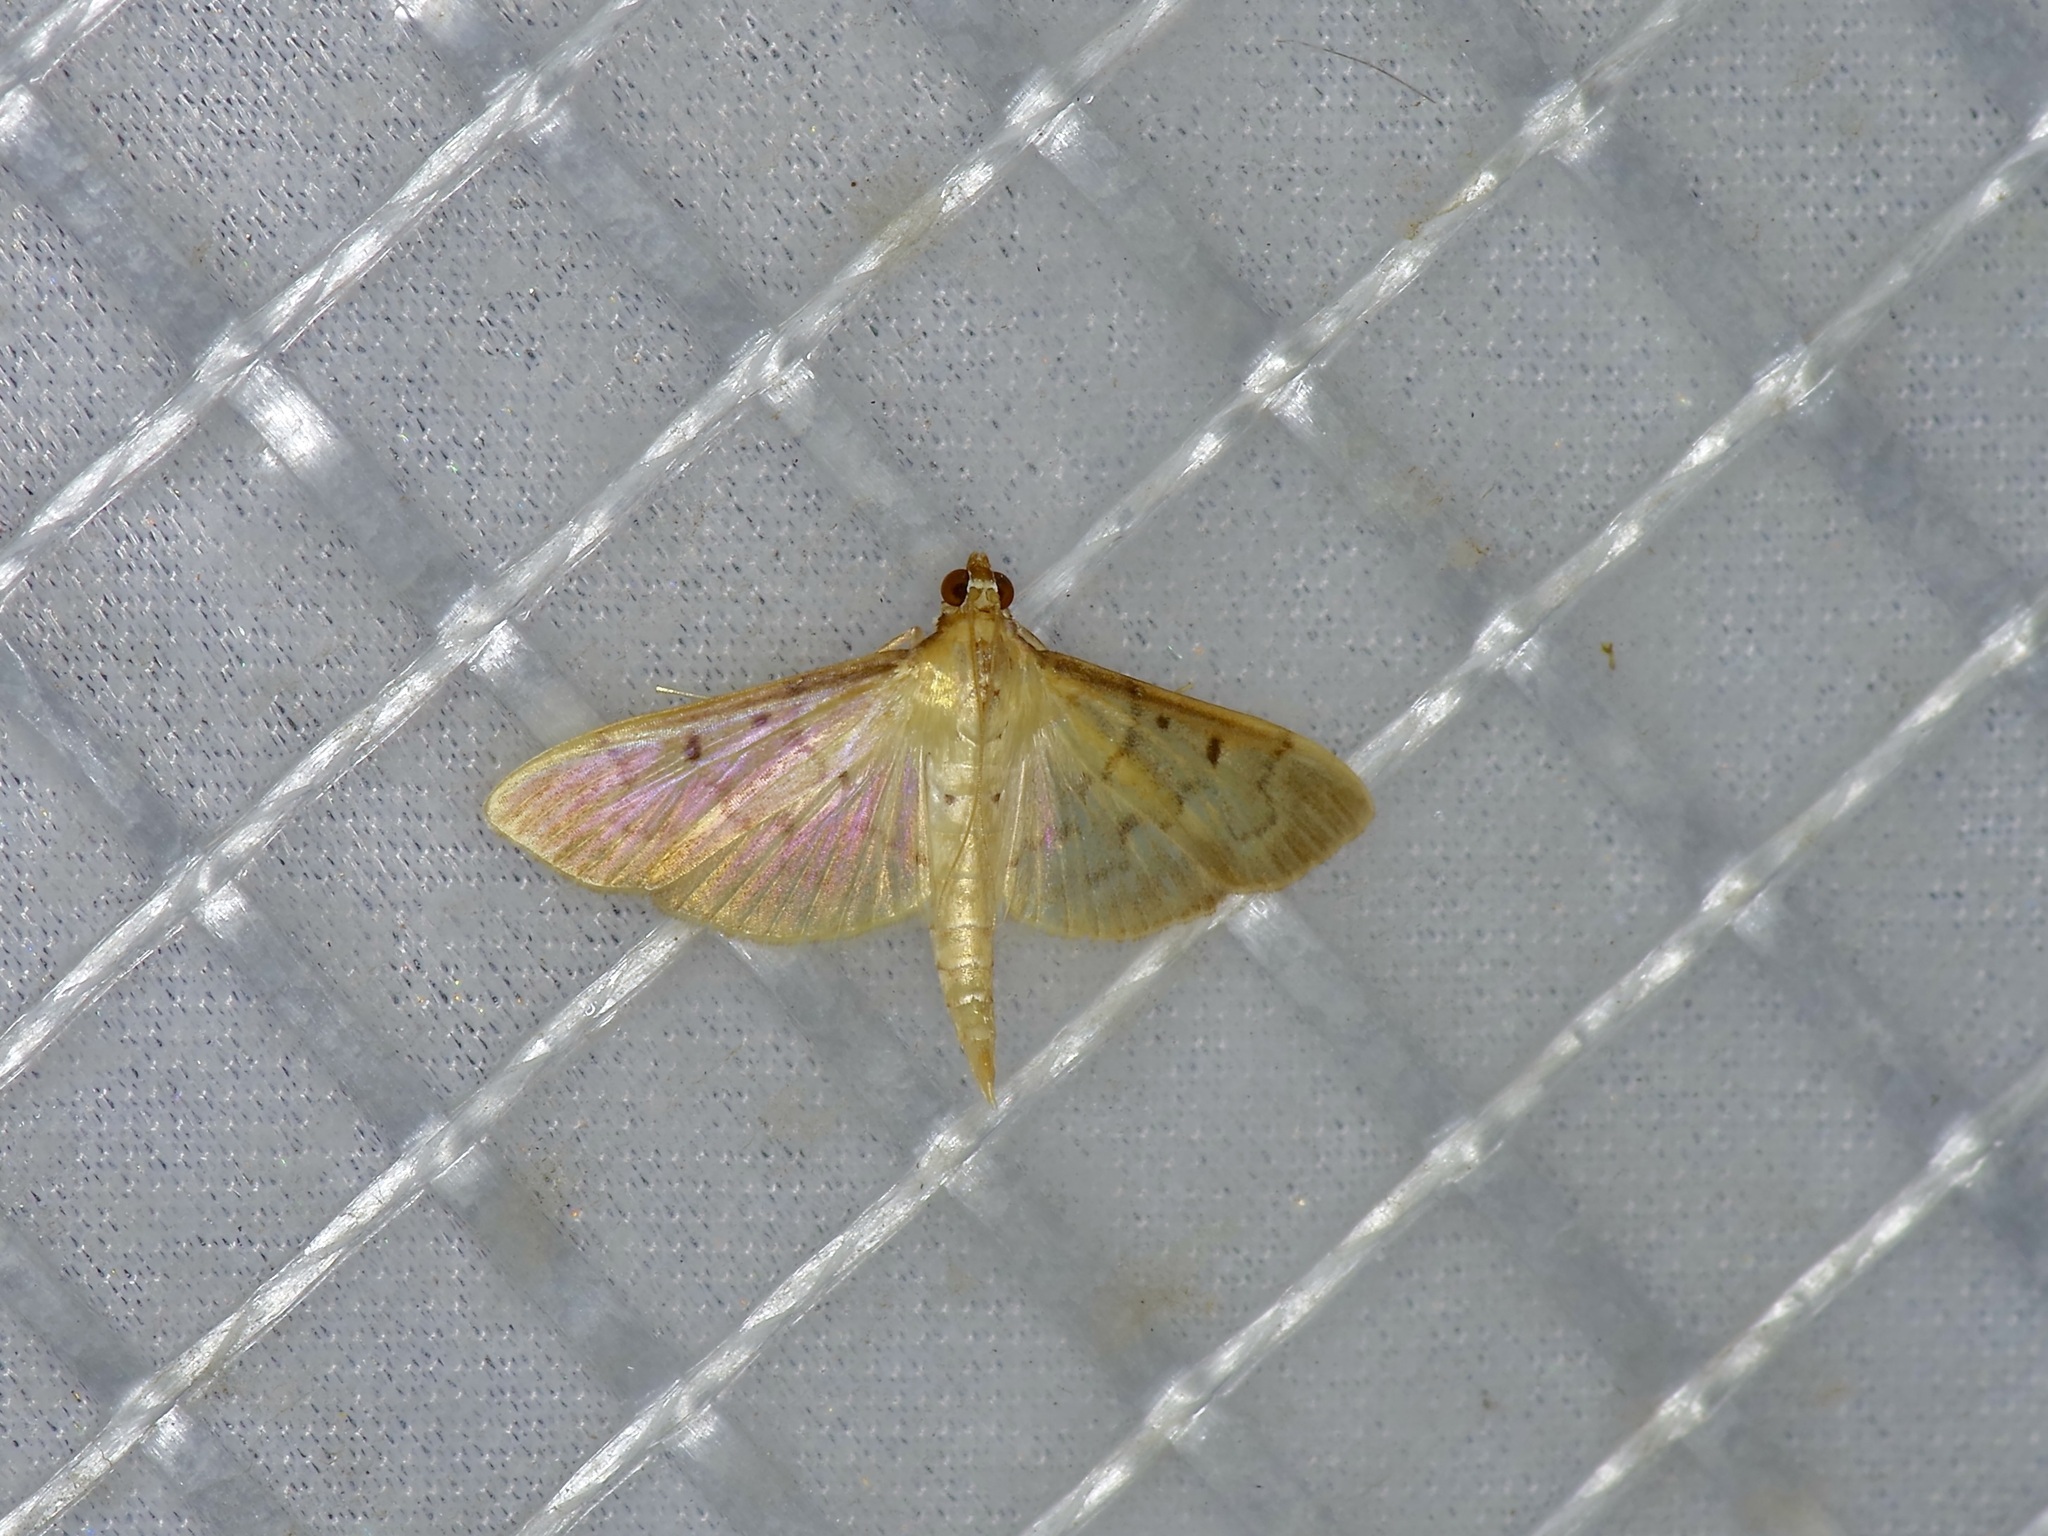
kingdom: Animalia
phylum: Arthropoda
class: Insecta
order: Lepidoptera
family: Crambidae
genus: Herpetogramma
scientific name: Herpetogramma bipunctalis
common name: Southern beet webworm
